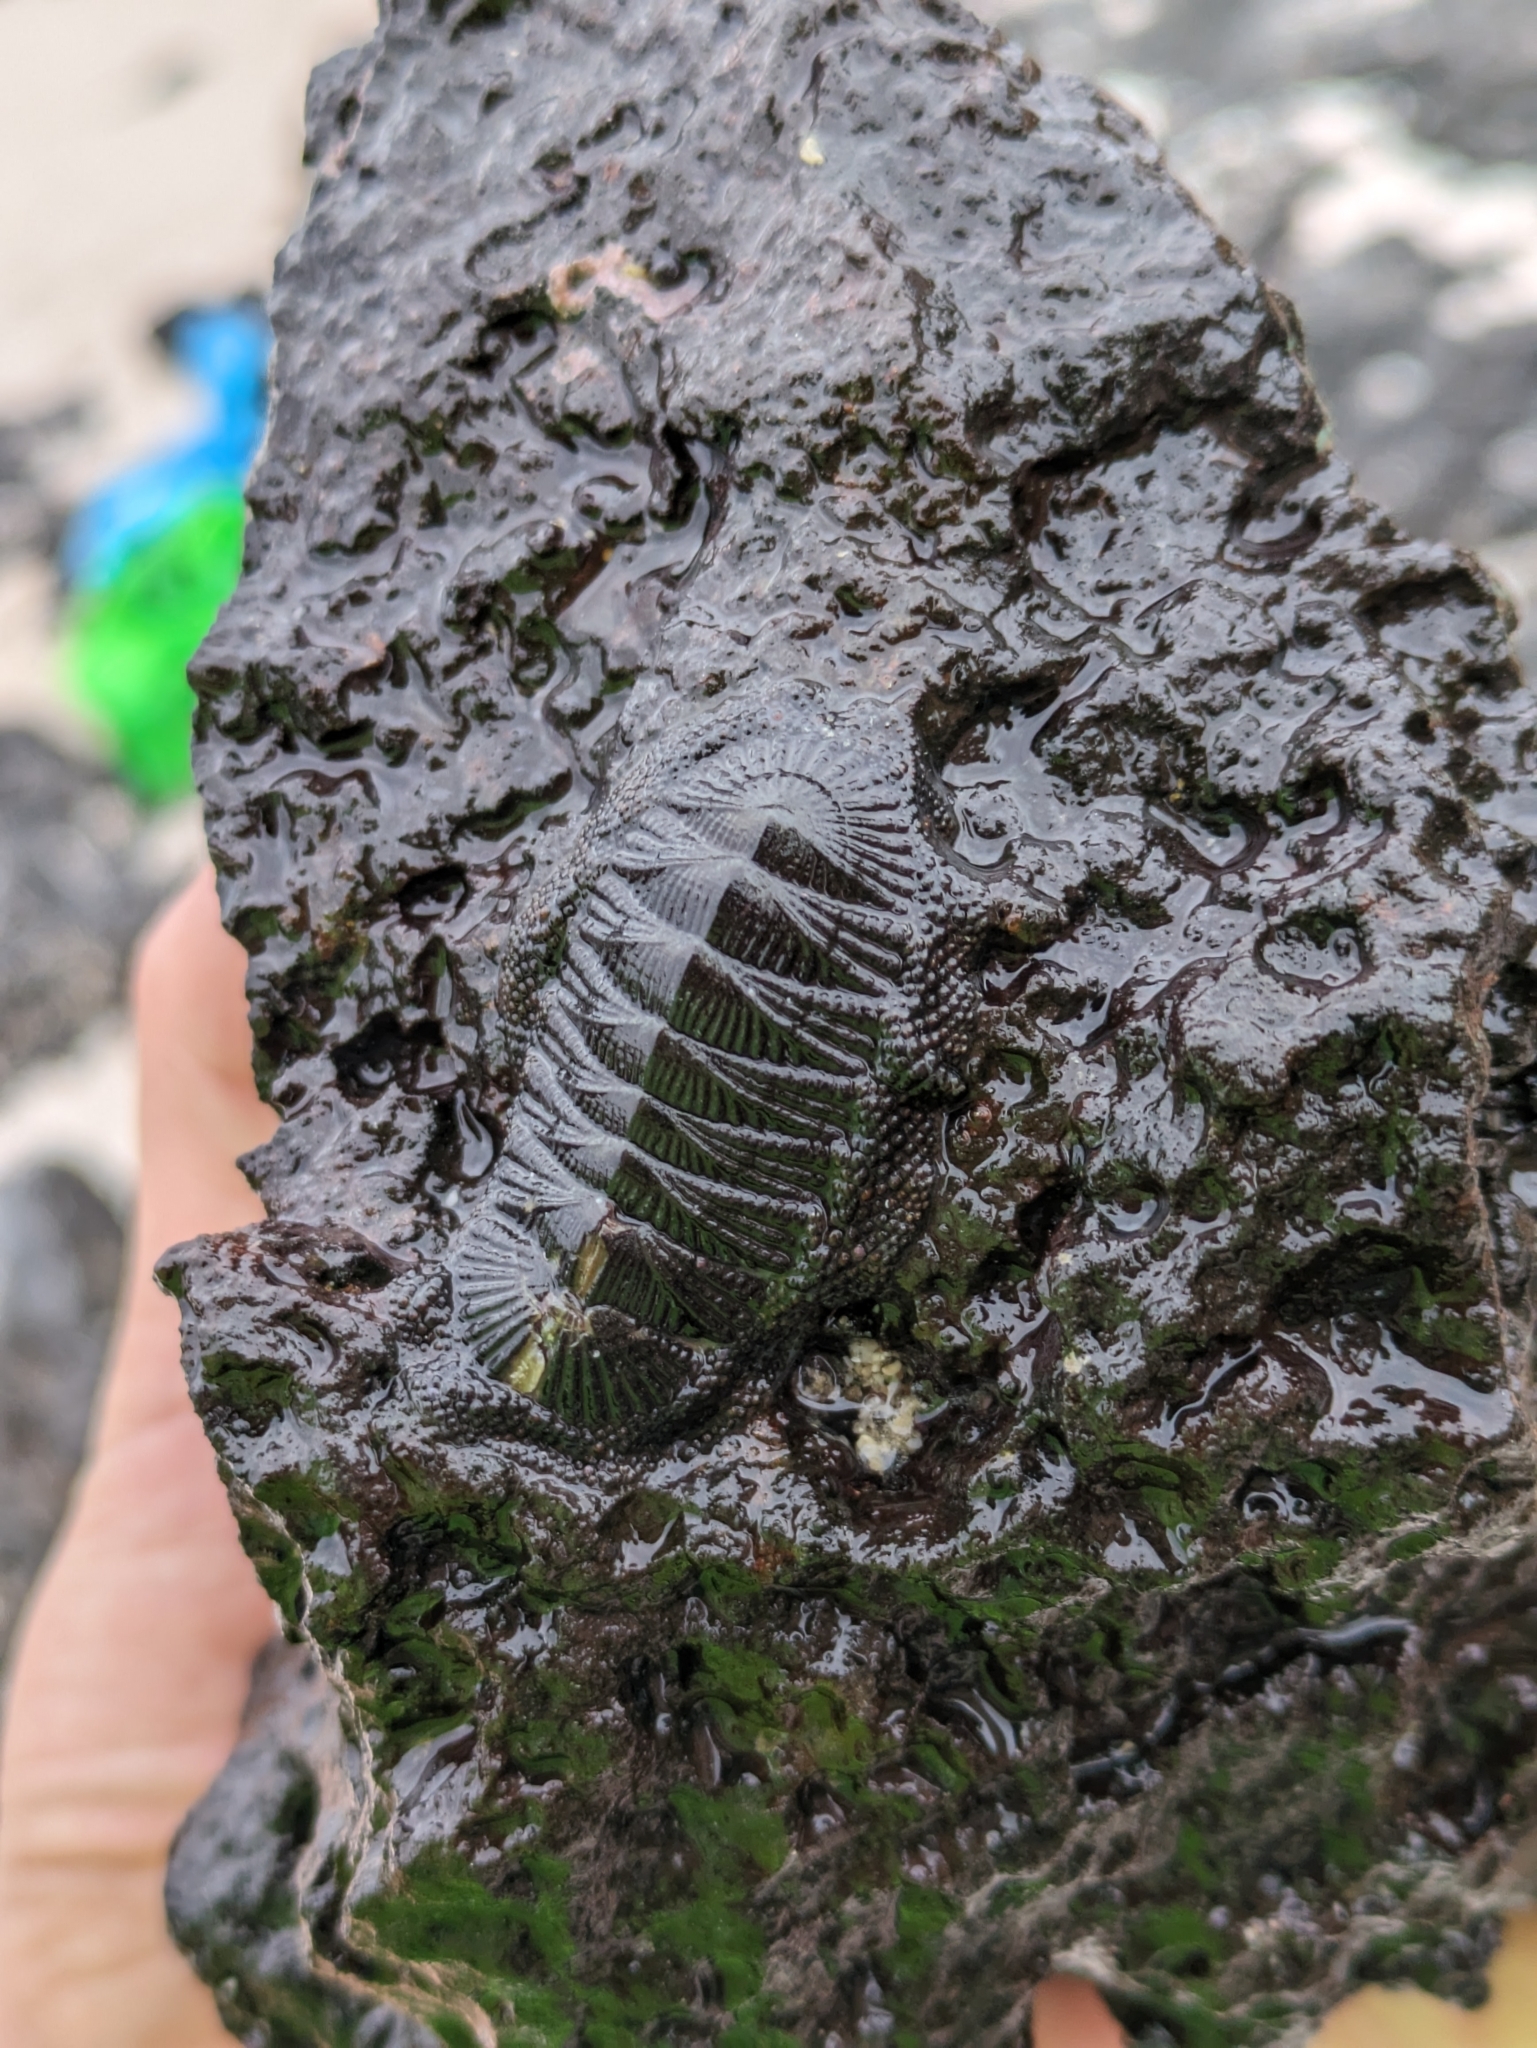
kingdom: Animalia
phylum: Mollusca
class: Polyplacophora
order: Chitonida
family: Chitonidae
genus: Radsia
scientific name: Radsia sulcatus
